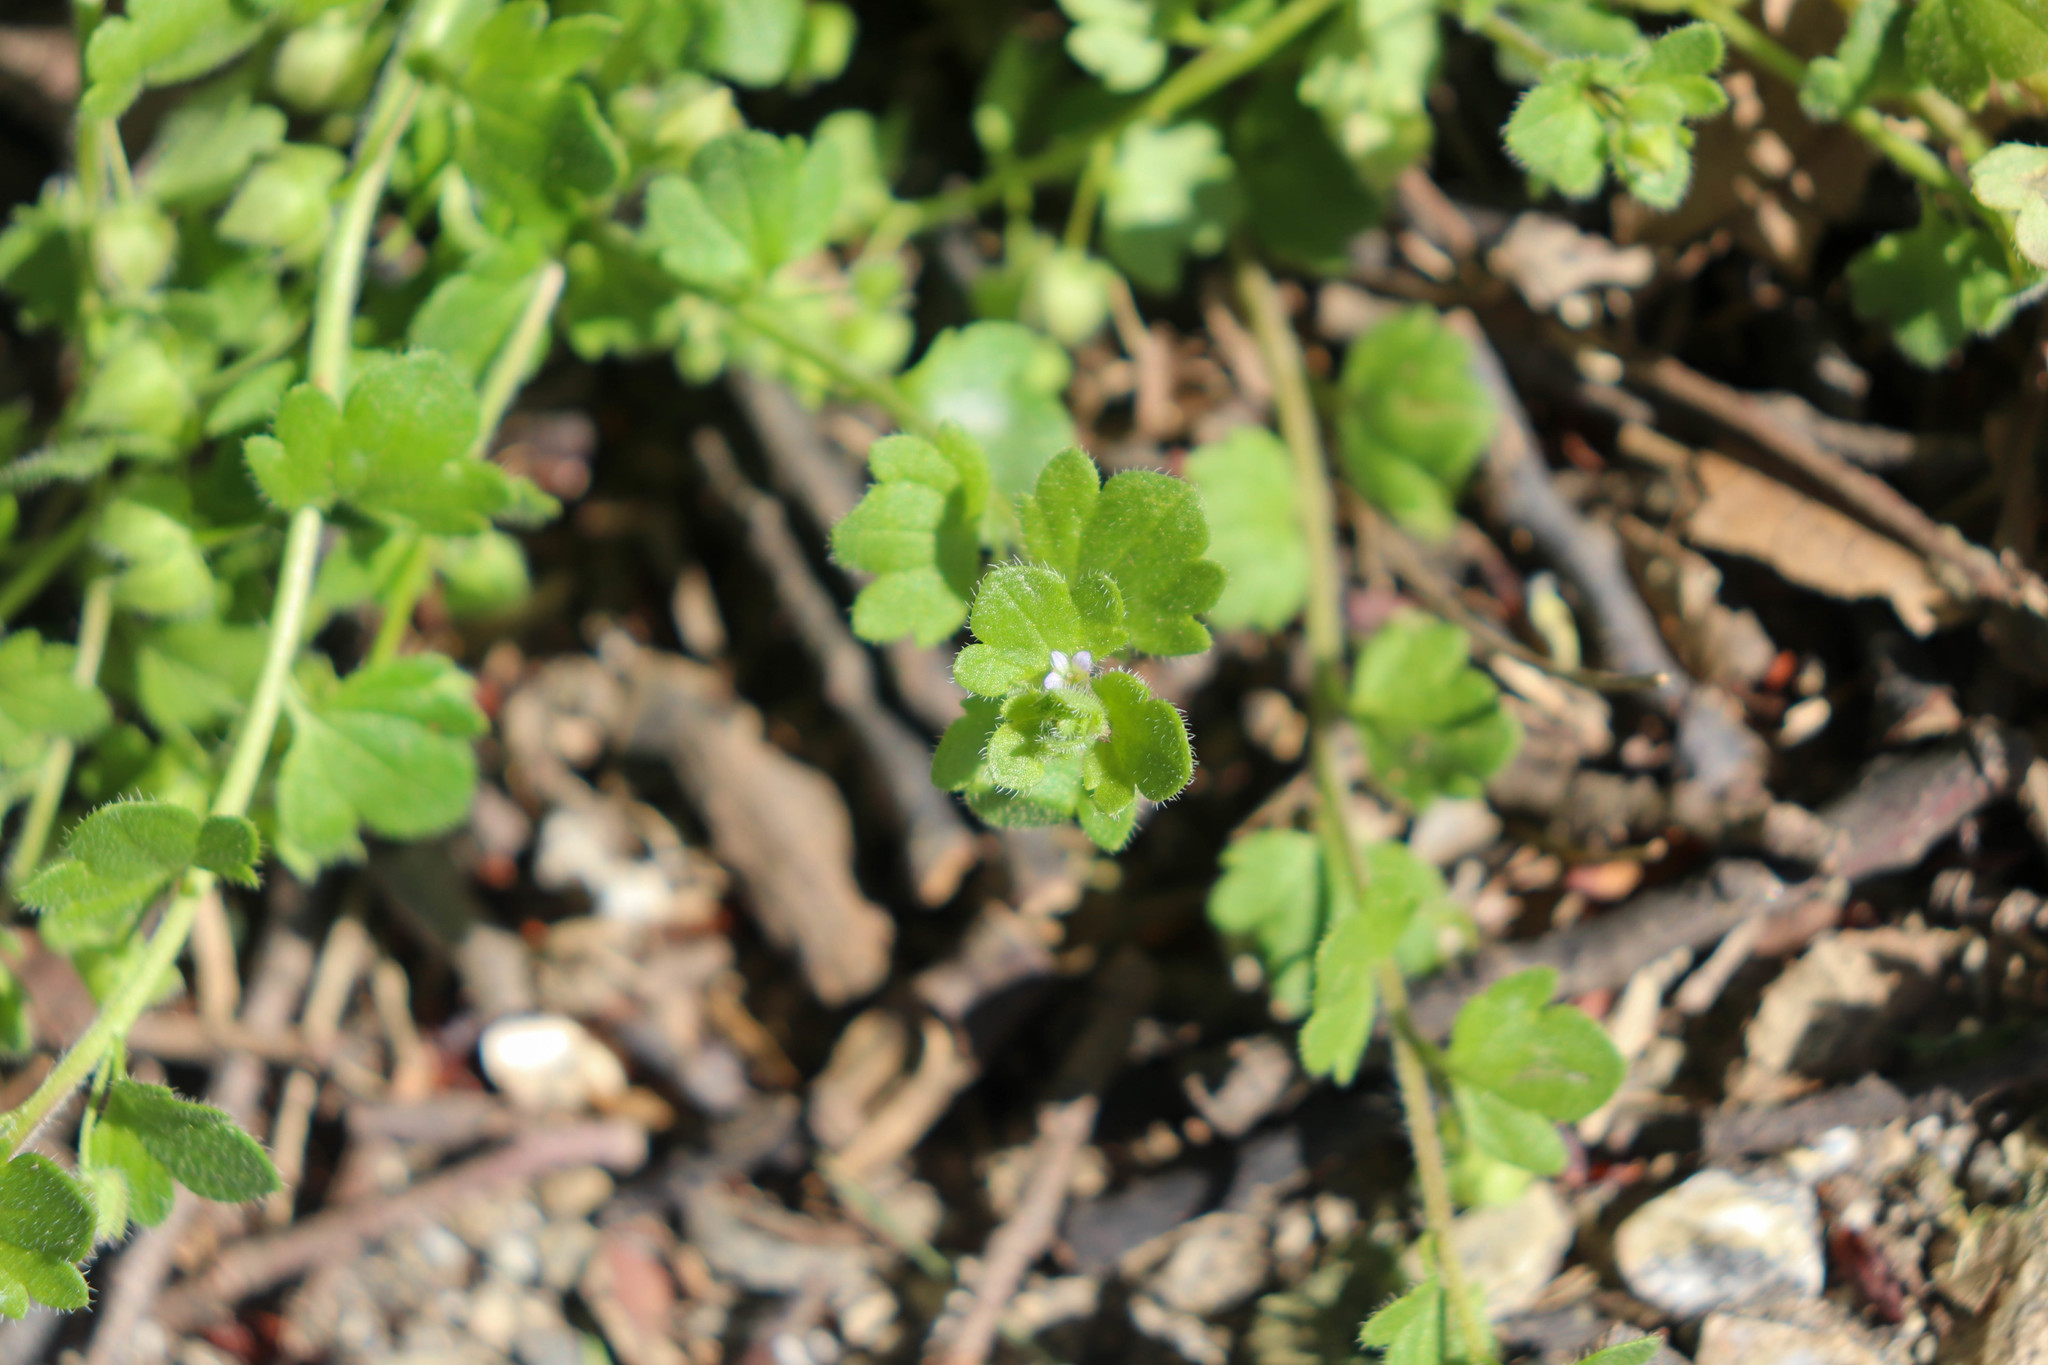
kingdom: Plantae
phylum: Tracheophyta
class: Magnoliopsida
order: Lamiales
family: Plantaginaceae
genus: Veronica
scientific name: Veronica sublobata
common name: False ivy-leaved speedwell
